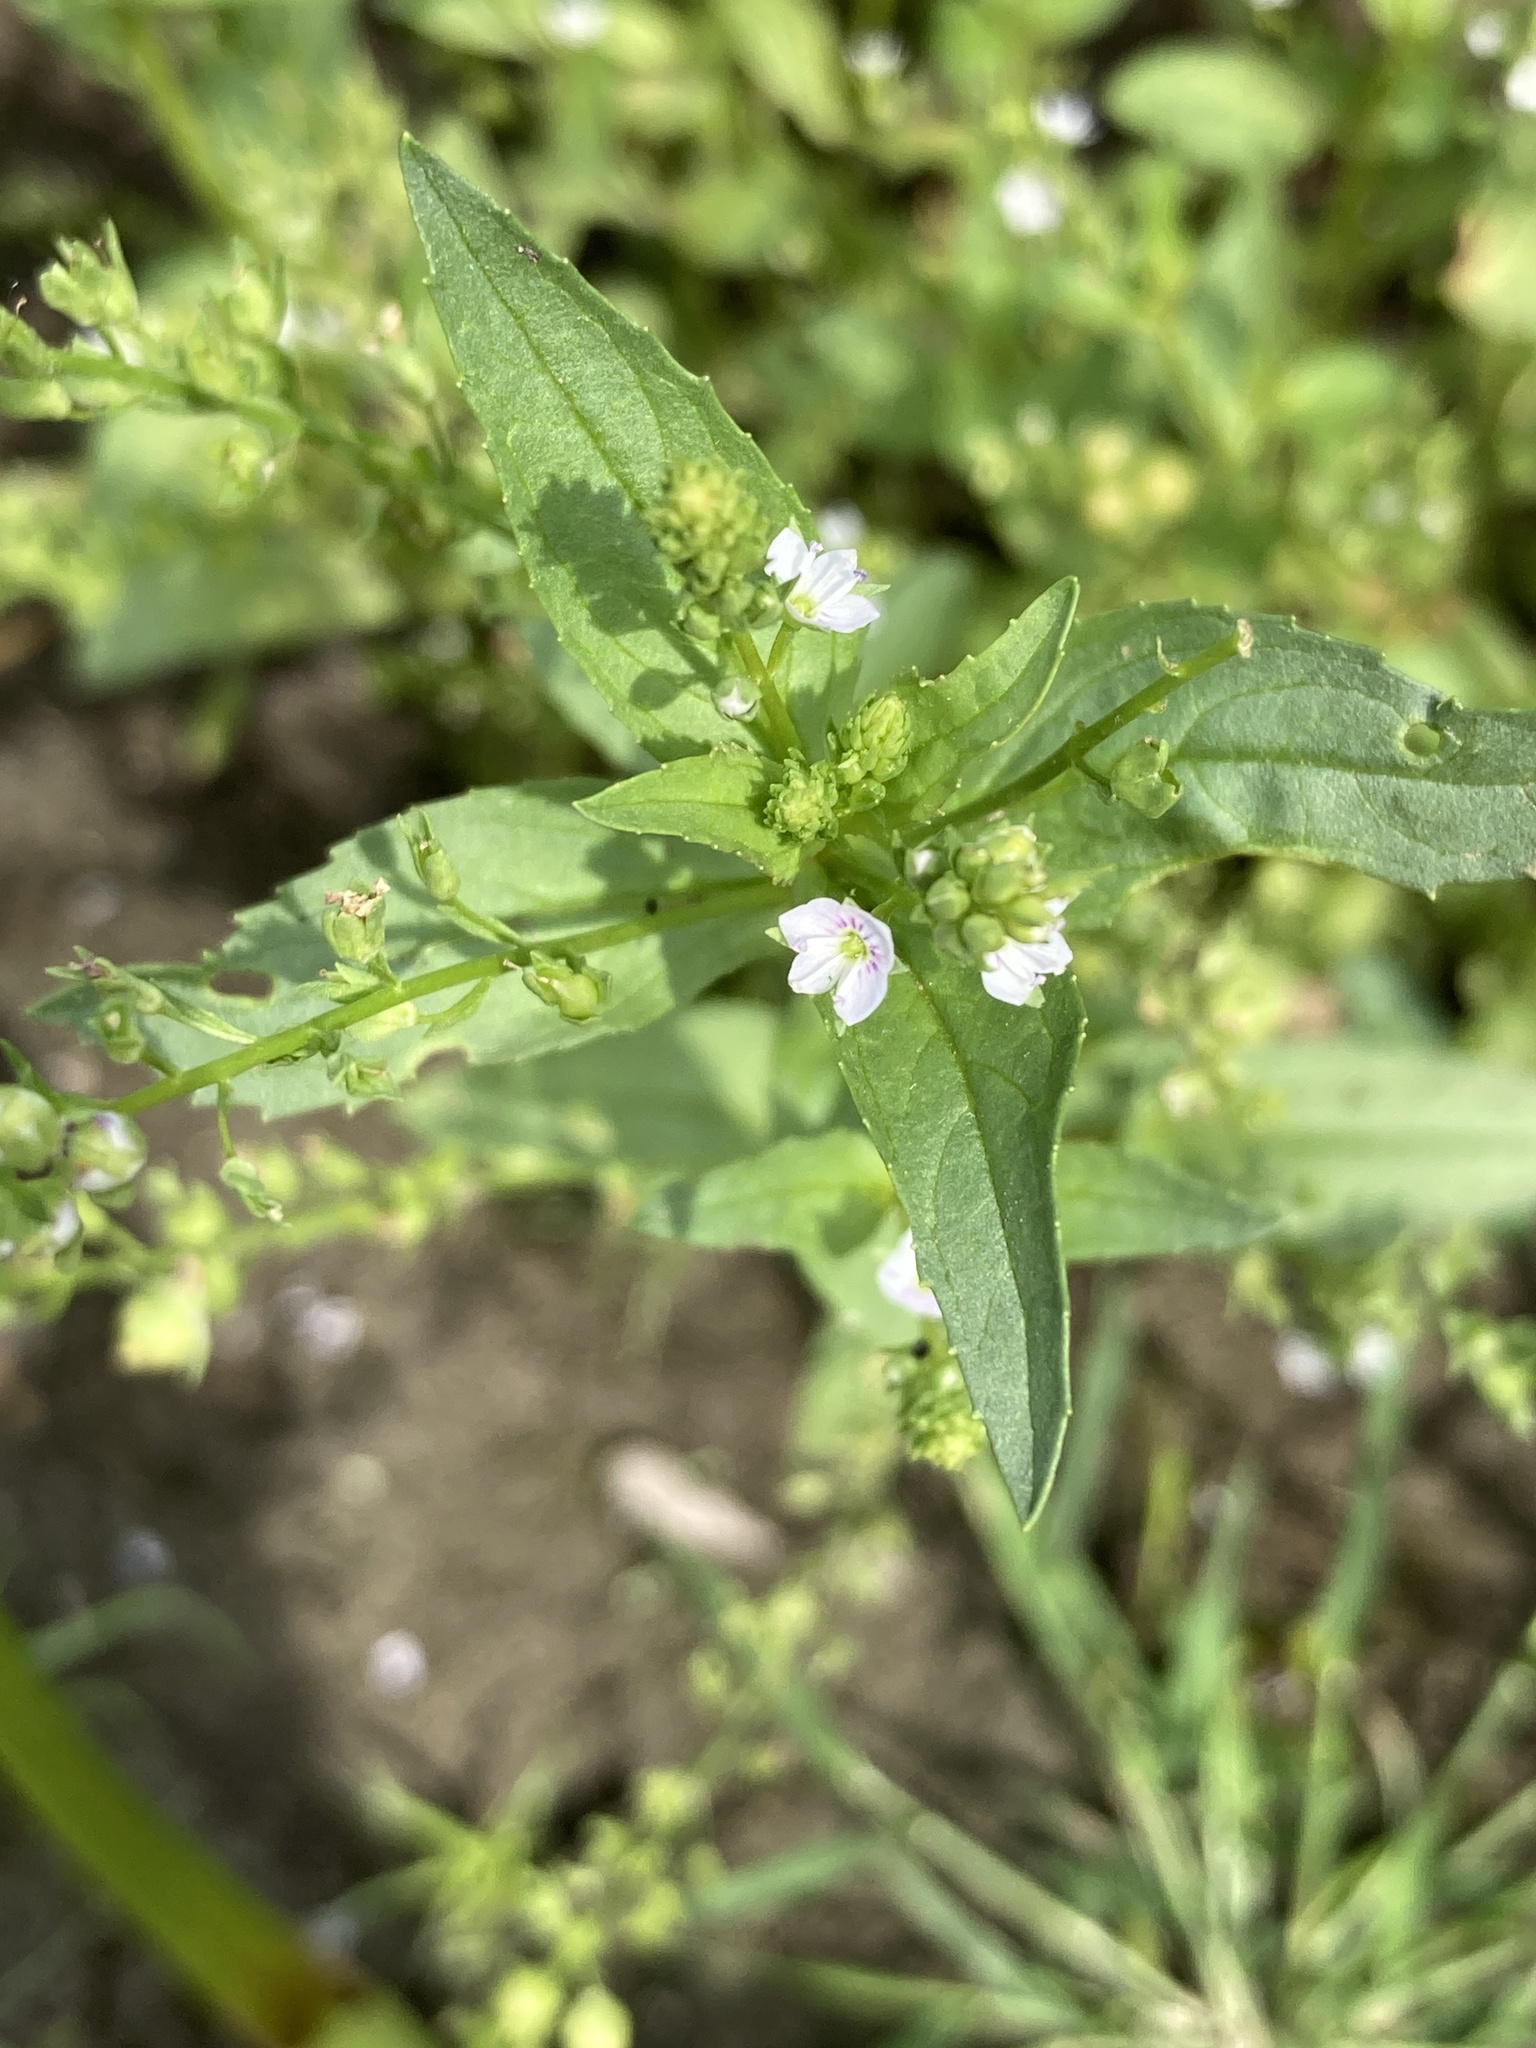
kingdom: Plantae
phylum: Tracheophyta
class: Magnoliopsida
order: Lamiales
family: Plantaginaceae
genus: Veronica
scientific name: Veronica anagallis-aquatica
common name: Water speedwell
